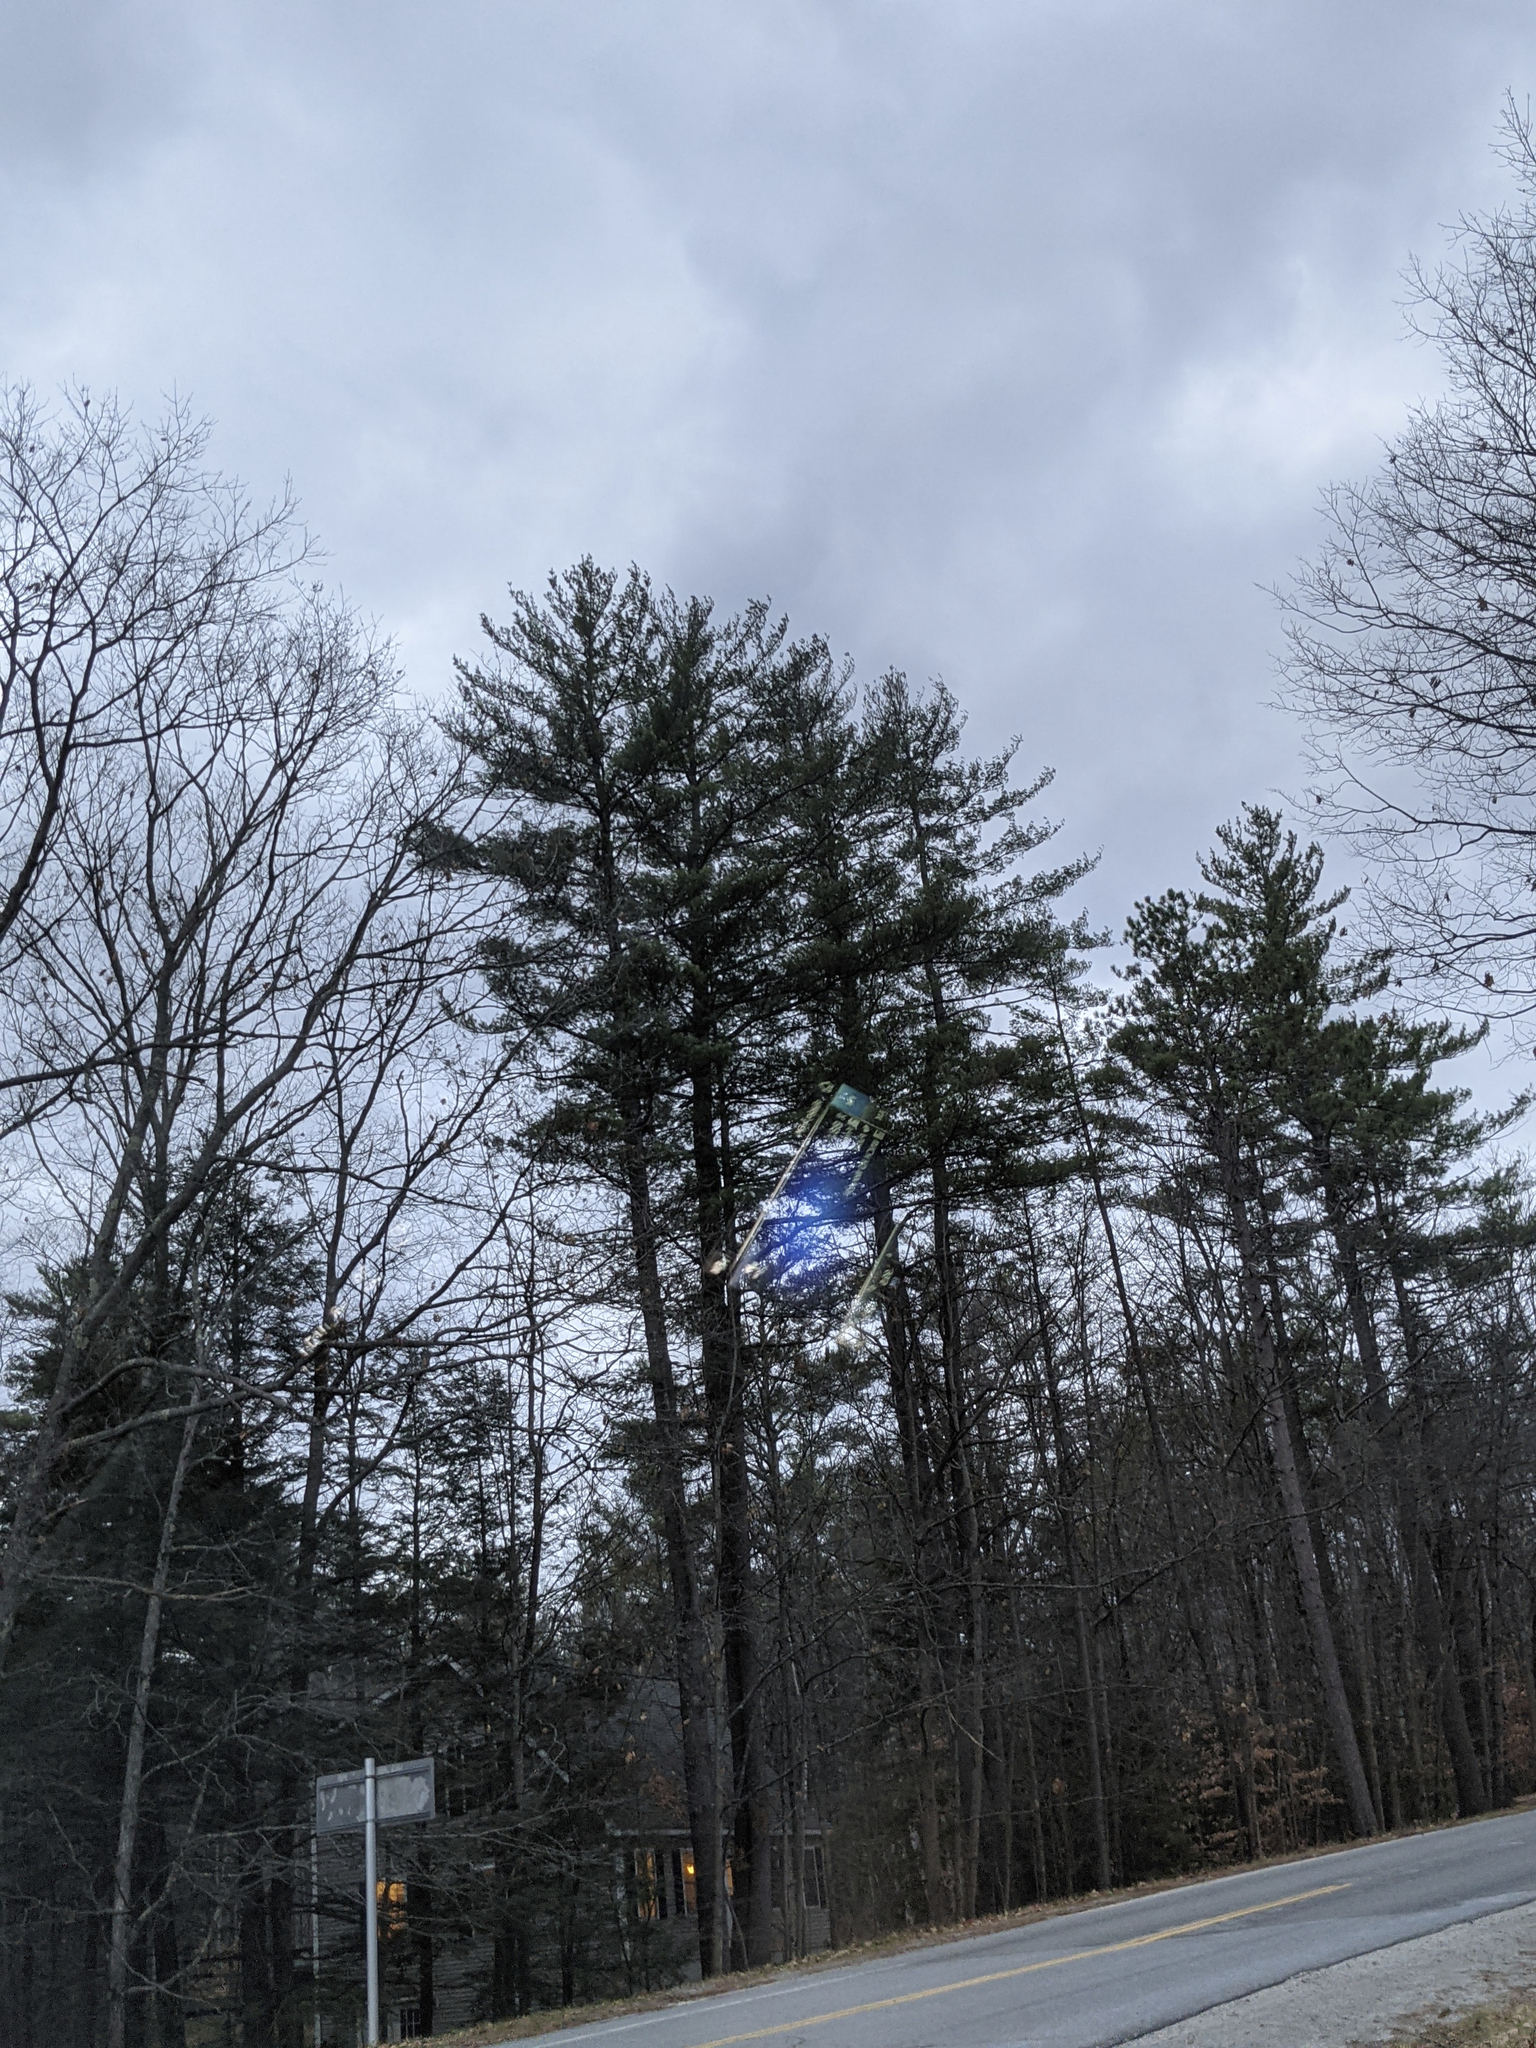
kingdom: Plantae
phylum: Tracheophyta
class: Pinopsida
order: Pinales
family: Pinaceae
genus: Pinus
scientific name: Pinus strobus
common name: Weymouth pine
